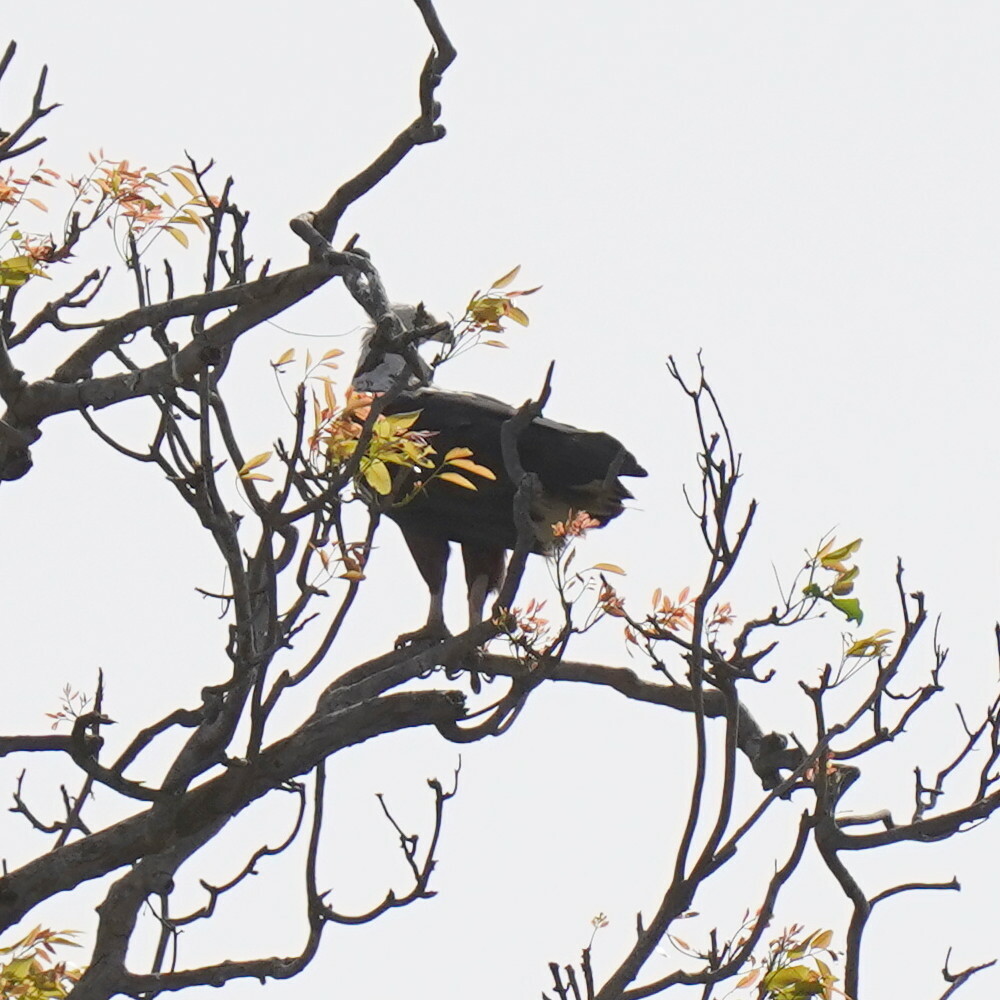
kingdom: Animalia
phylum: Chordata
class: Aves
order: Accipitriformes
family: Accipitridae
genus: Haliaeetus
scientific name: Haliaeetus vocifer
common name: African fish eagle
